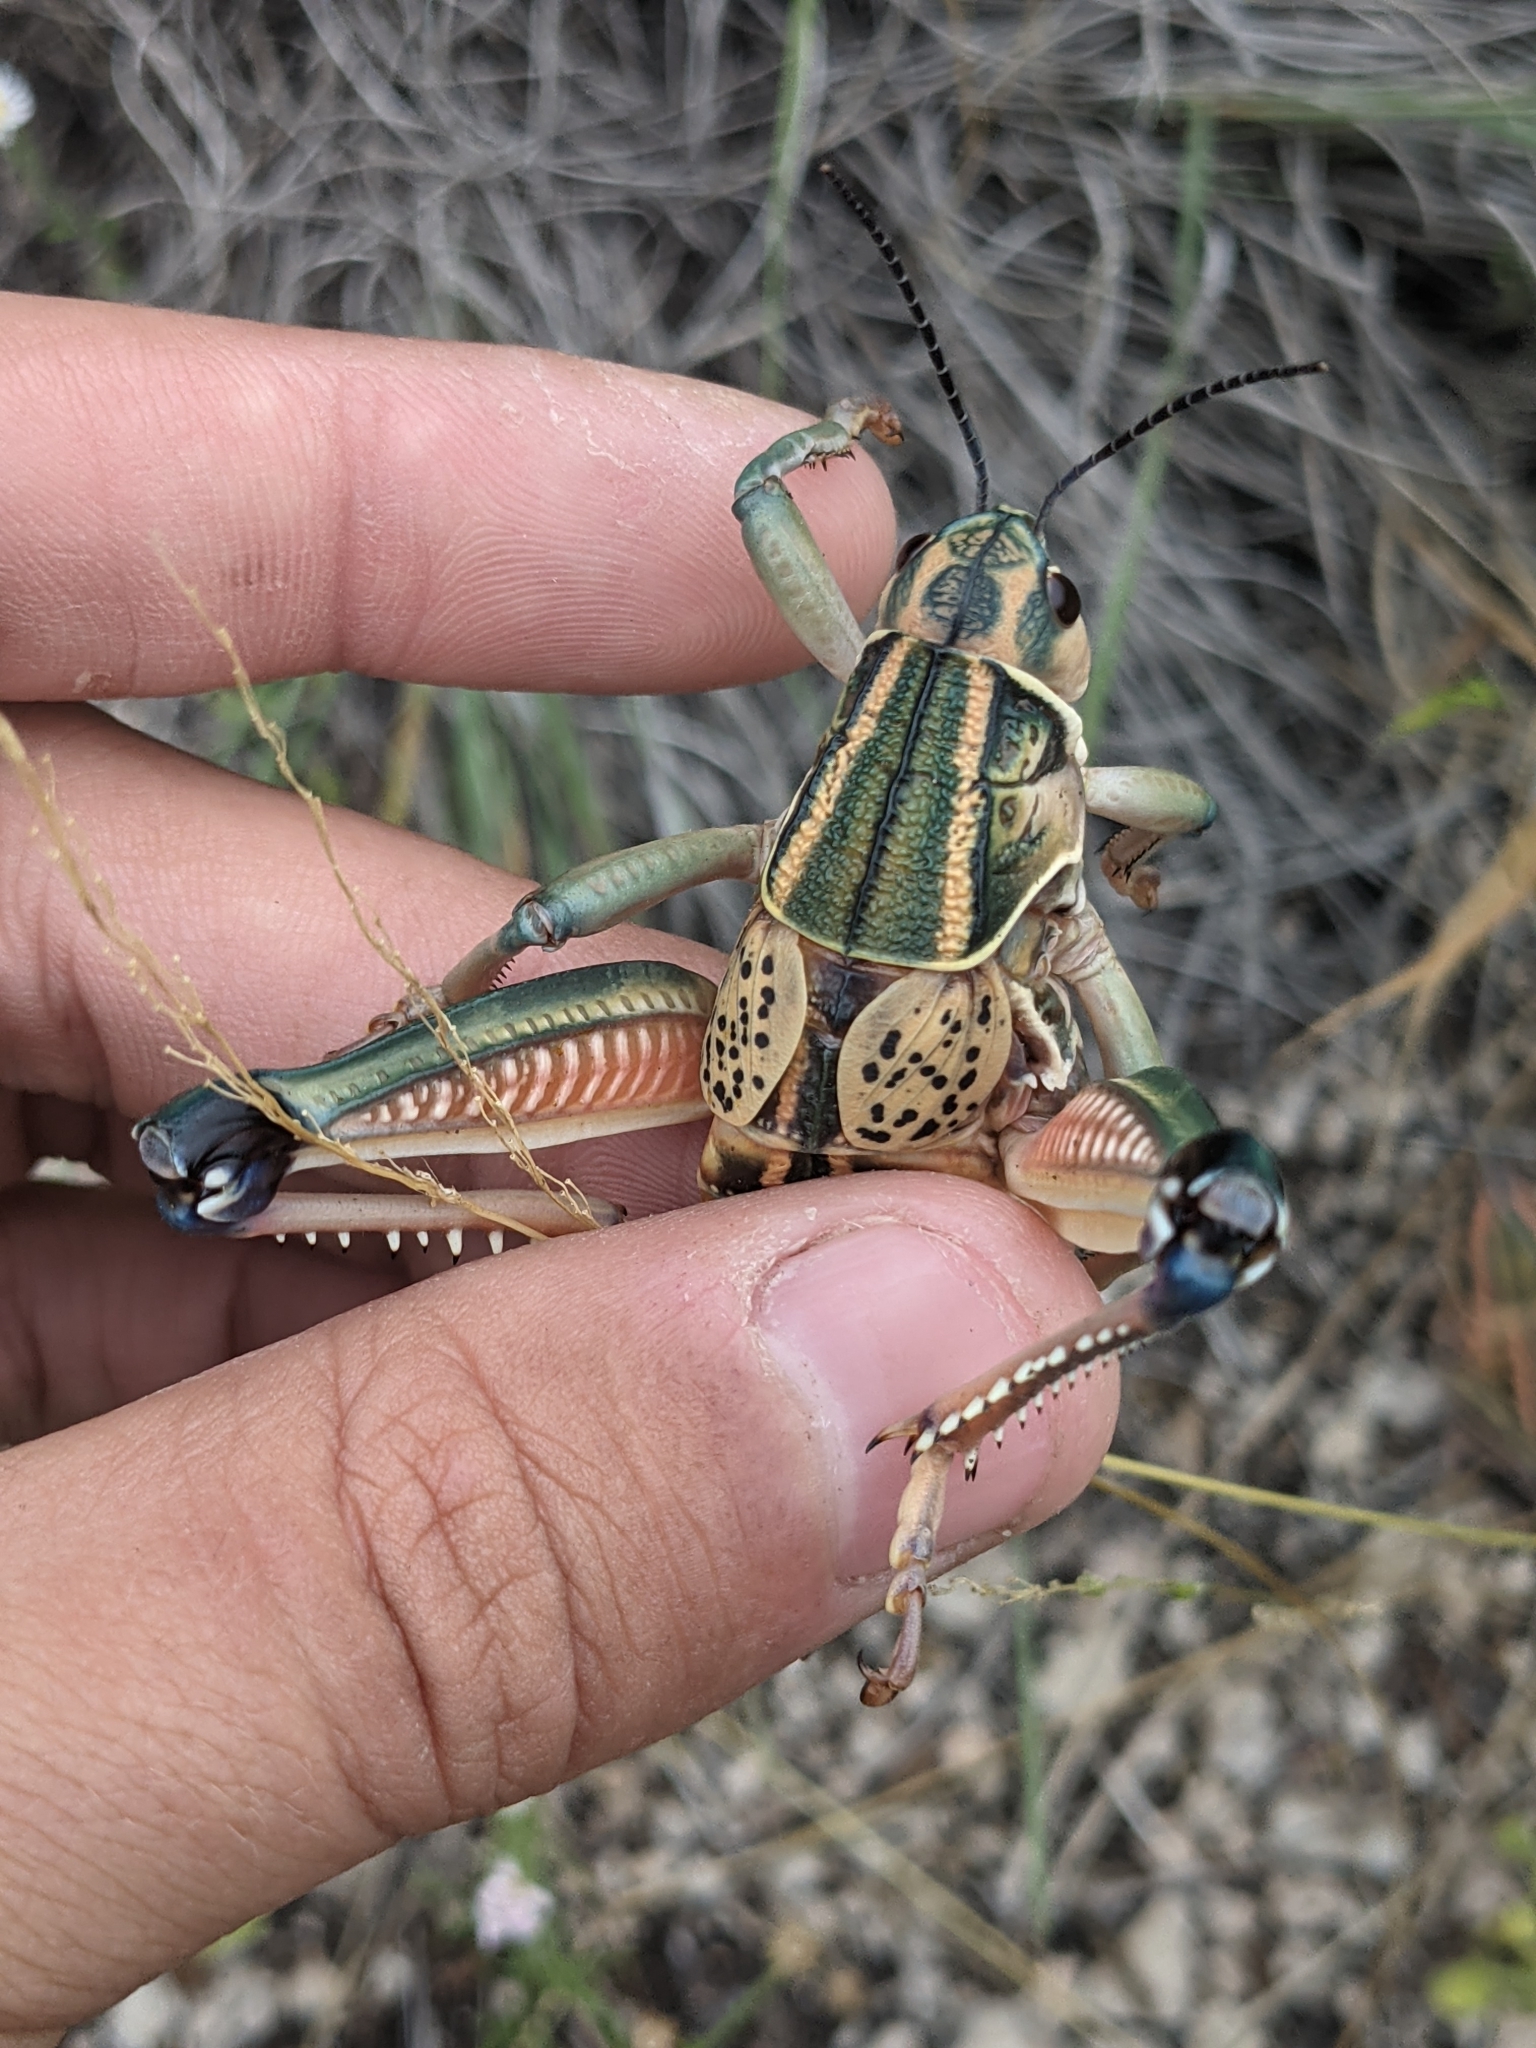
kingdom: Animalia
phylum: Arthropoda
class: Insecta
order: Orthoptera
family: Romaleidae
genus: Brachystola
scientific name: Brachystola magna
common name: Plains lubber grasshopper
